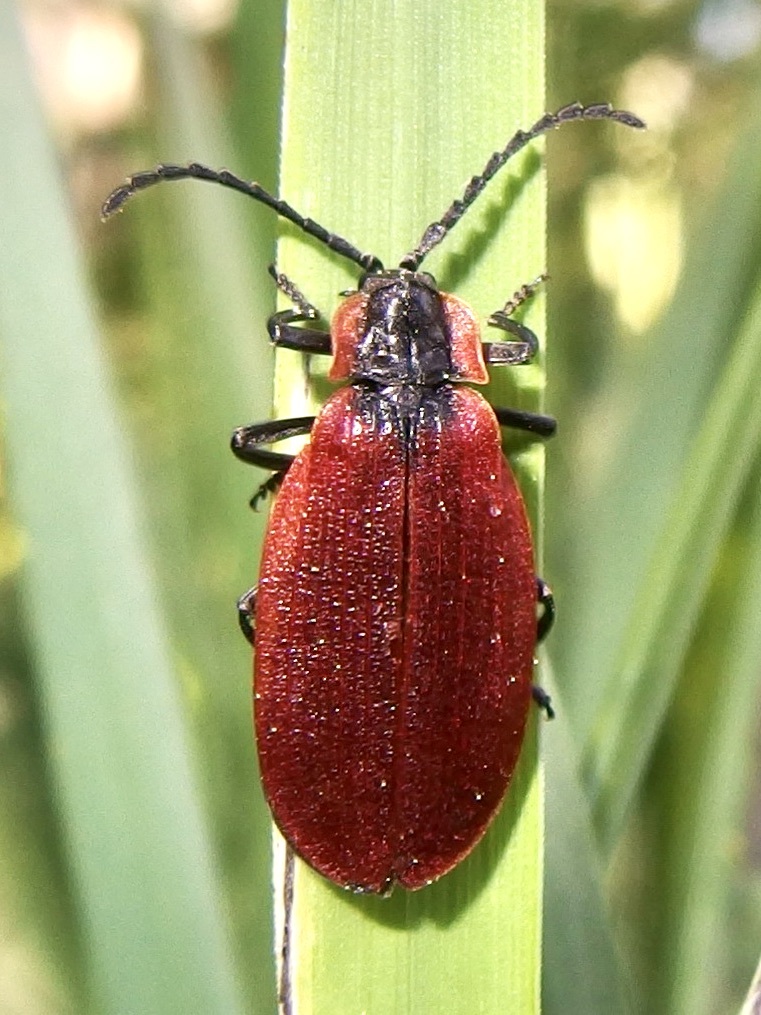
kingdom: Animalia
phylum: Arthropoda
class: Insecta
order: Coleoptera
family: Lycidae
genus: Lycus
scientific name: Lycus sanguinipennis
